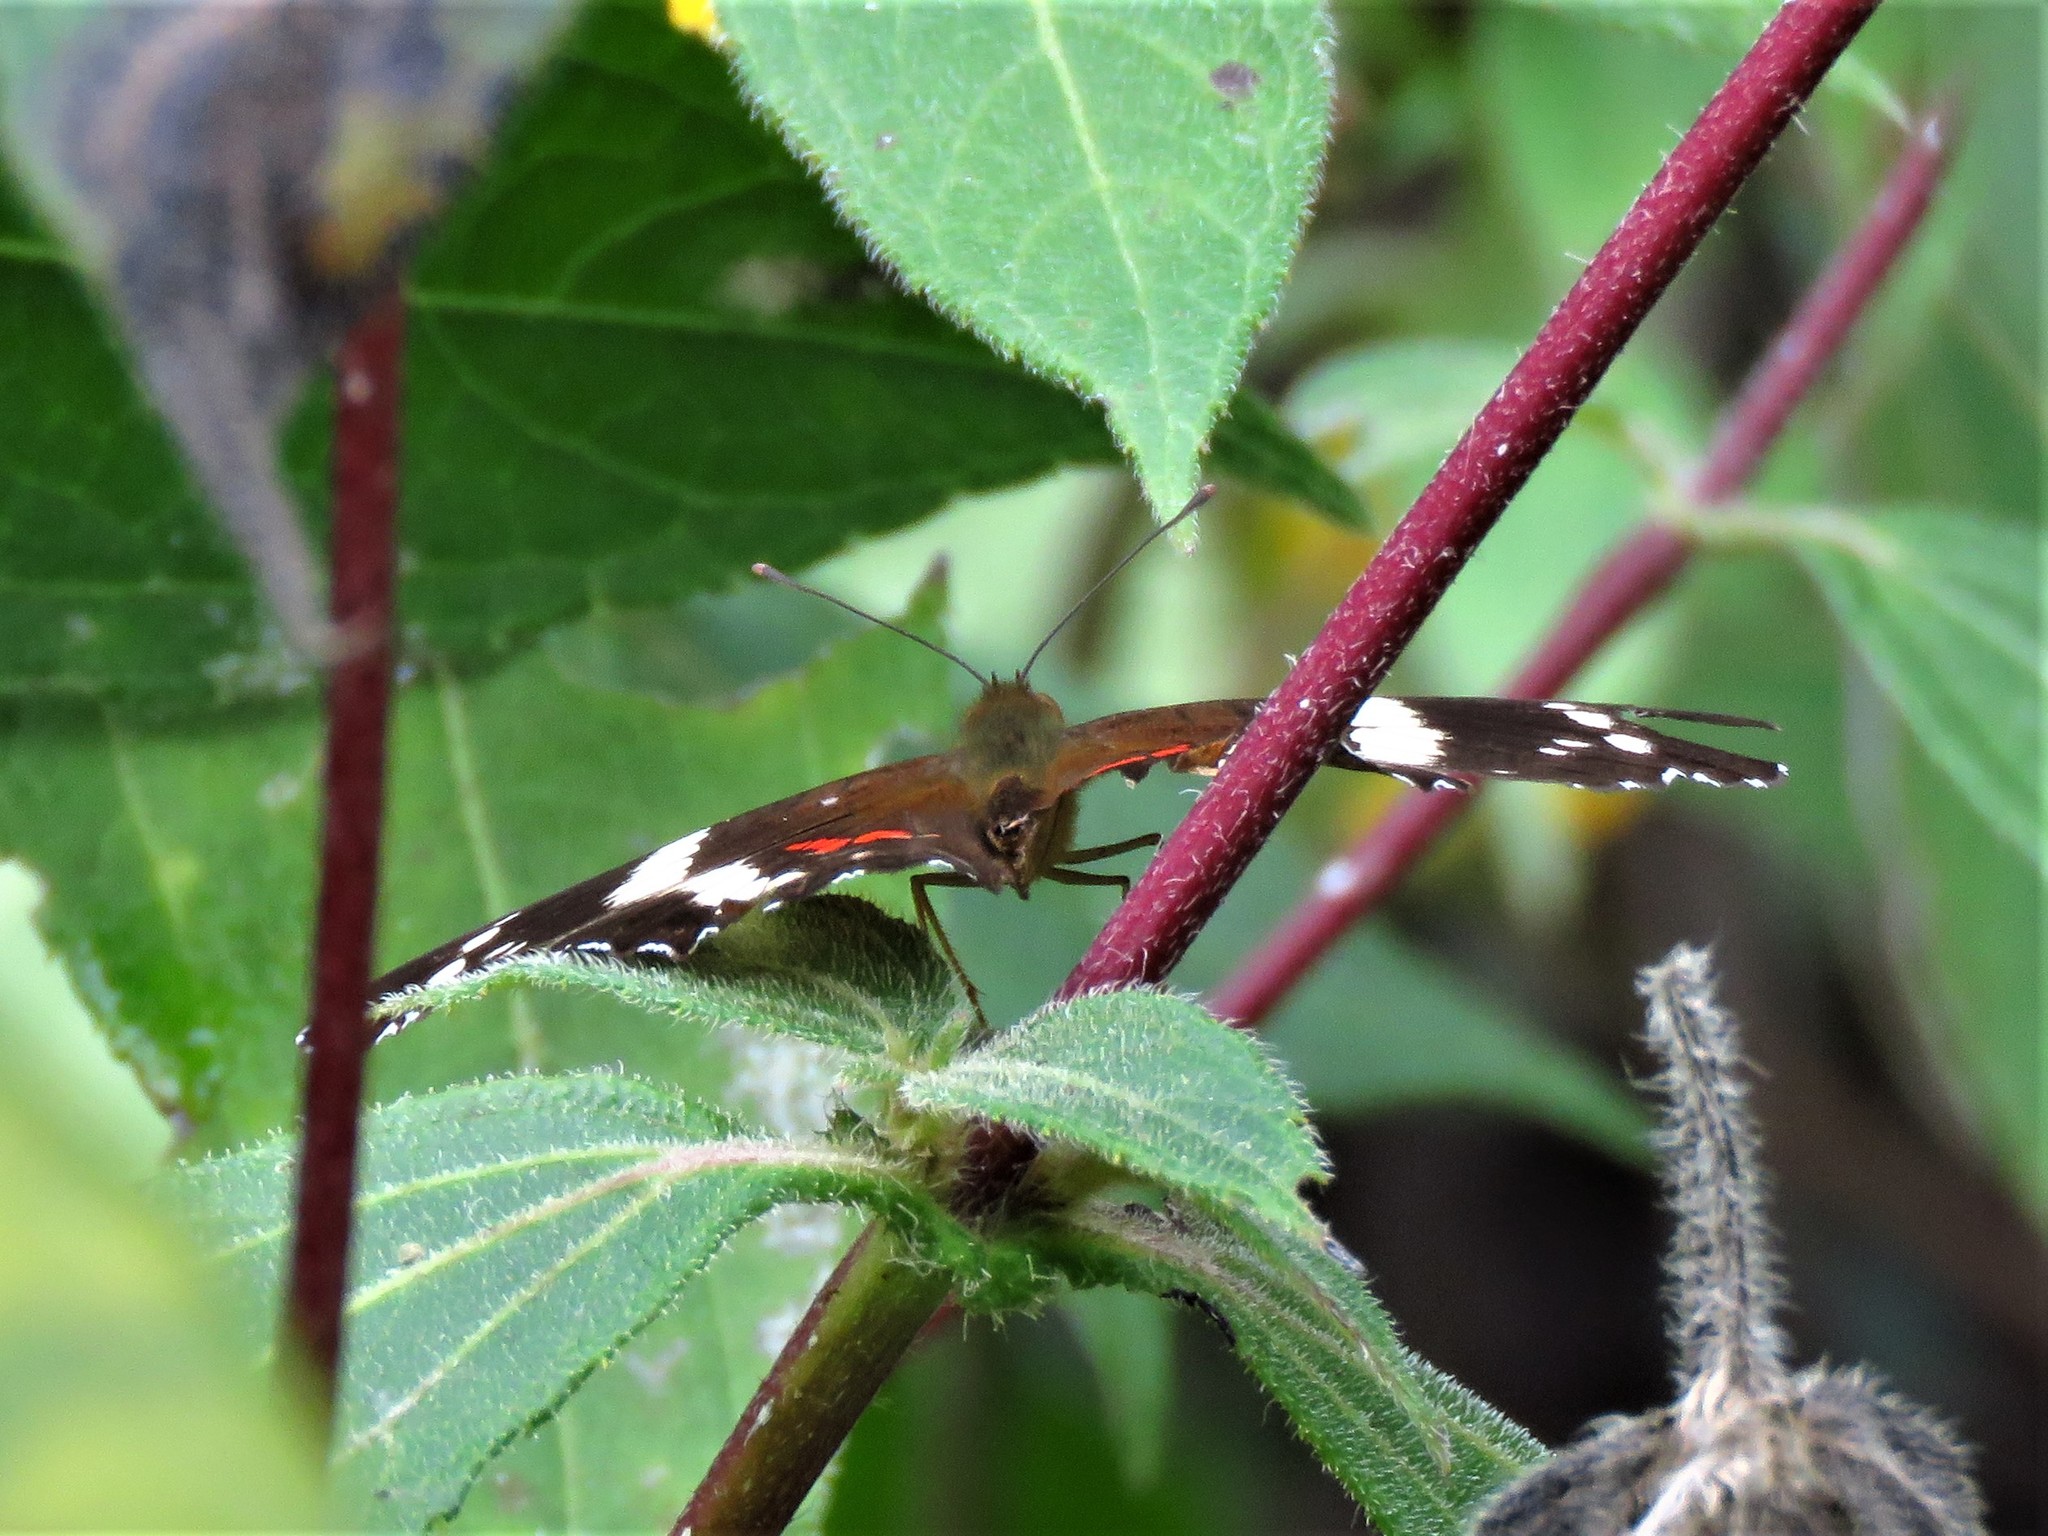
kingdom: Animalia
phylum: Arthropoda
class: Insecta
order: Lepidoptera
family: Nymphalidae
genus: Anartia
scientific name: Anartia fatima
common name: Banded peacock
